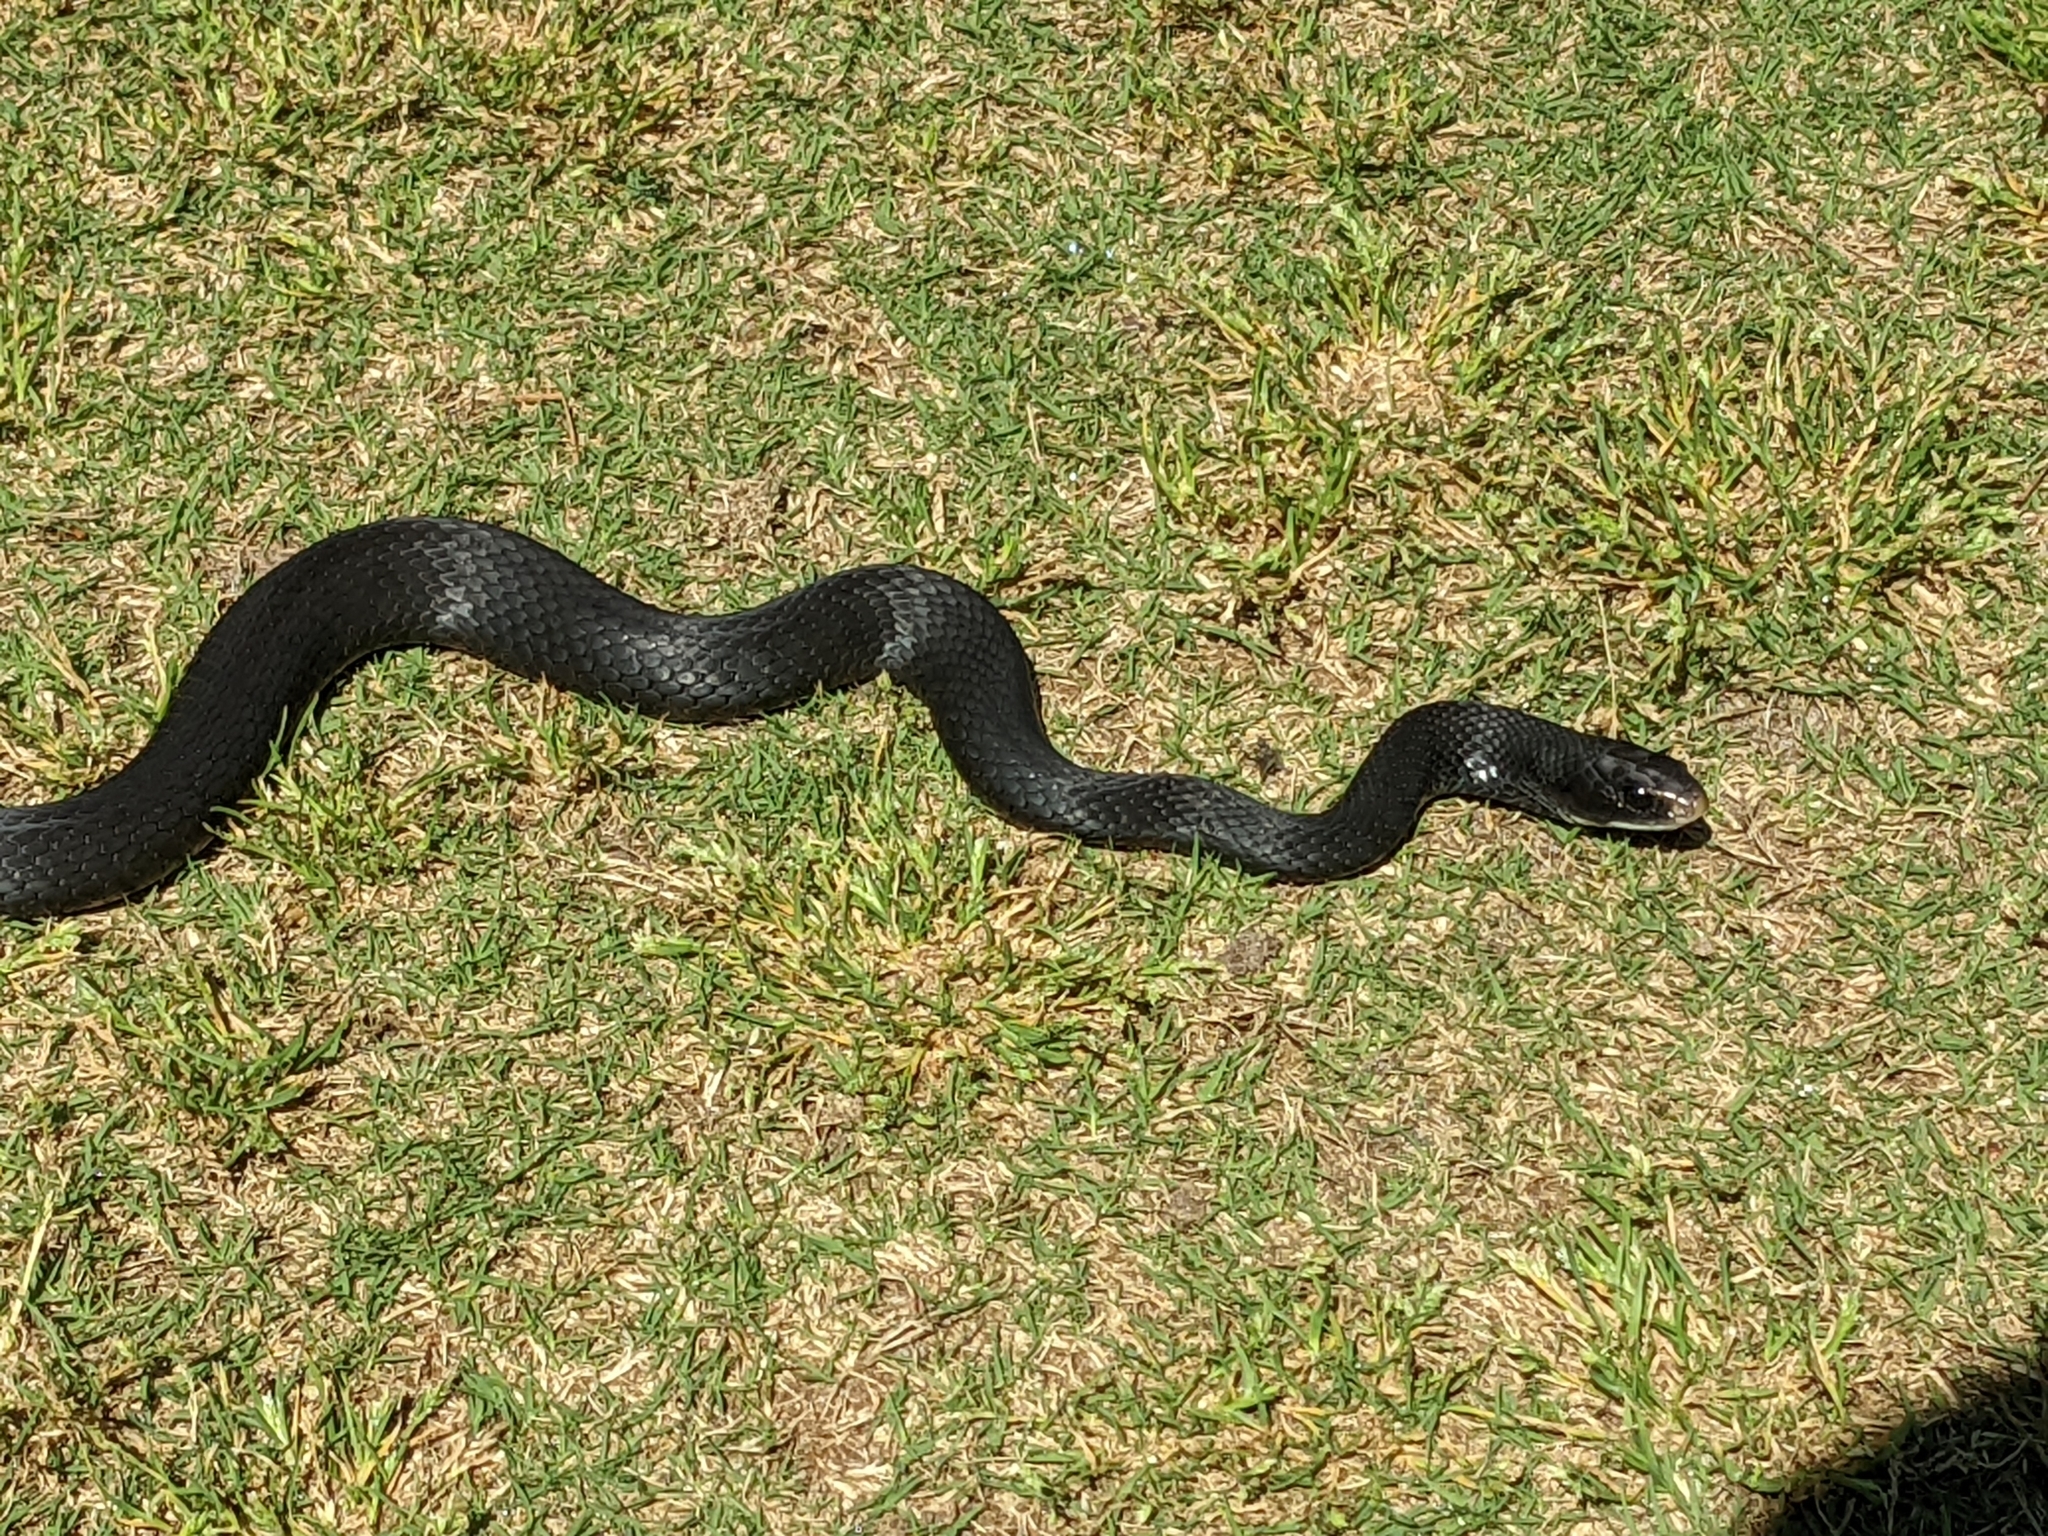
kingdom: Animalia
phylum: Chordata
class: Squamata
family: Colubridae
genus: Coluber
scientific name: Coluber constrictor
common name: Eastern racer
